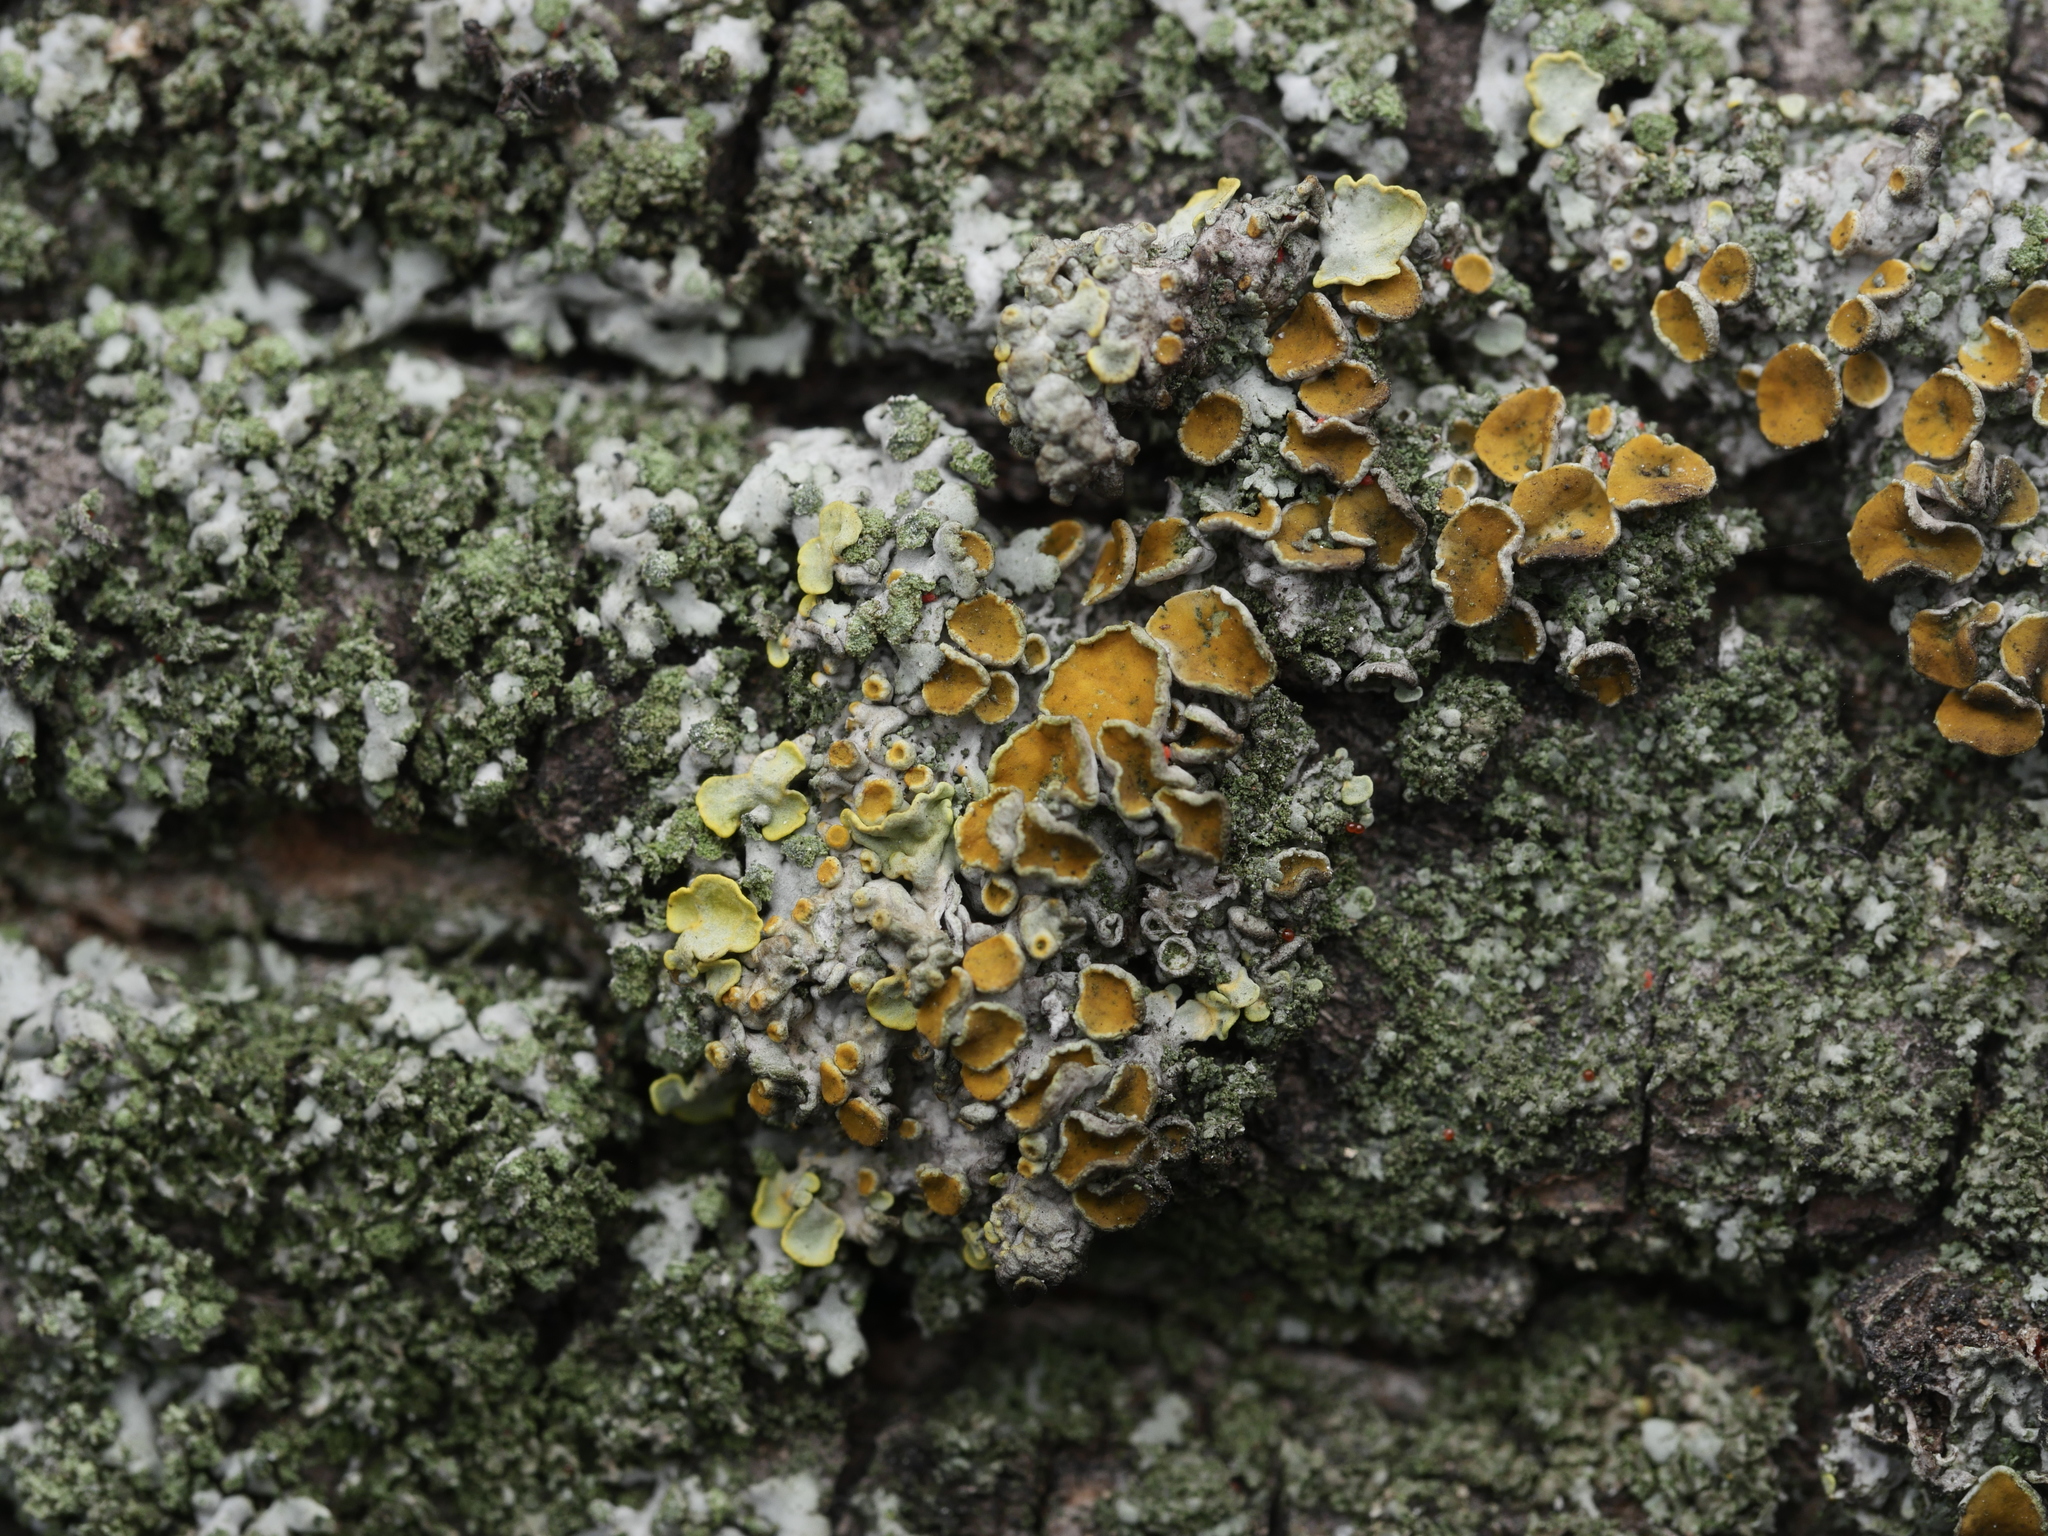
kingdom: Fungi
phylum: Ascomycota
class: Lecanoromycetes
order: Teloschistales
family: Teloschistaceae
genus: Xanthoria
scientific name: Xanthoria parietina
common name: Common orange lichen
